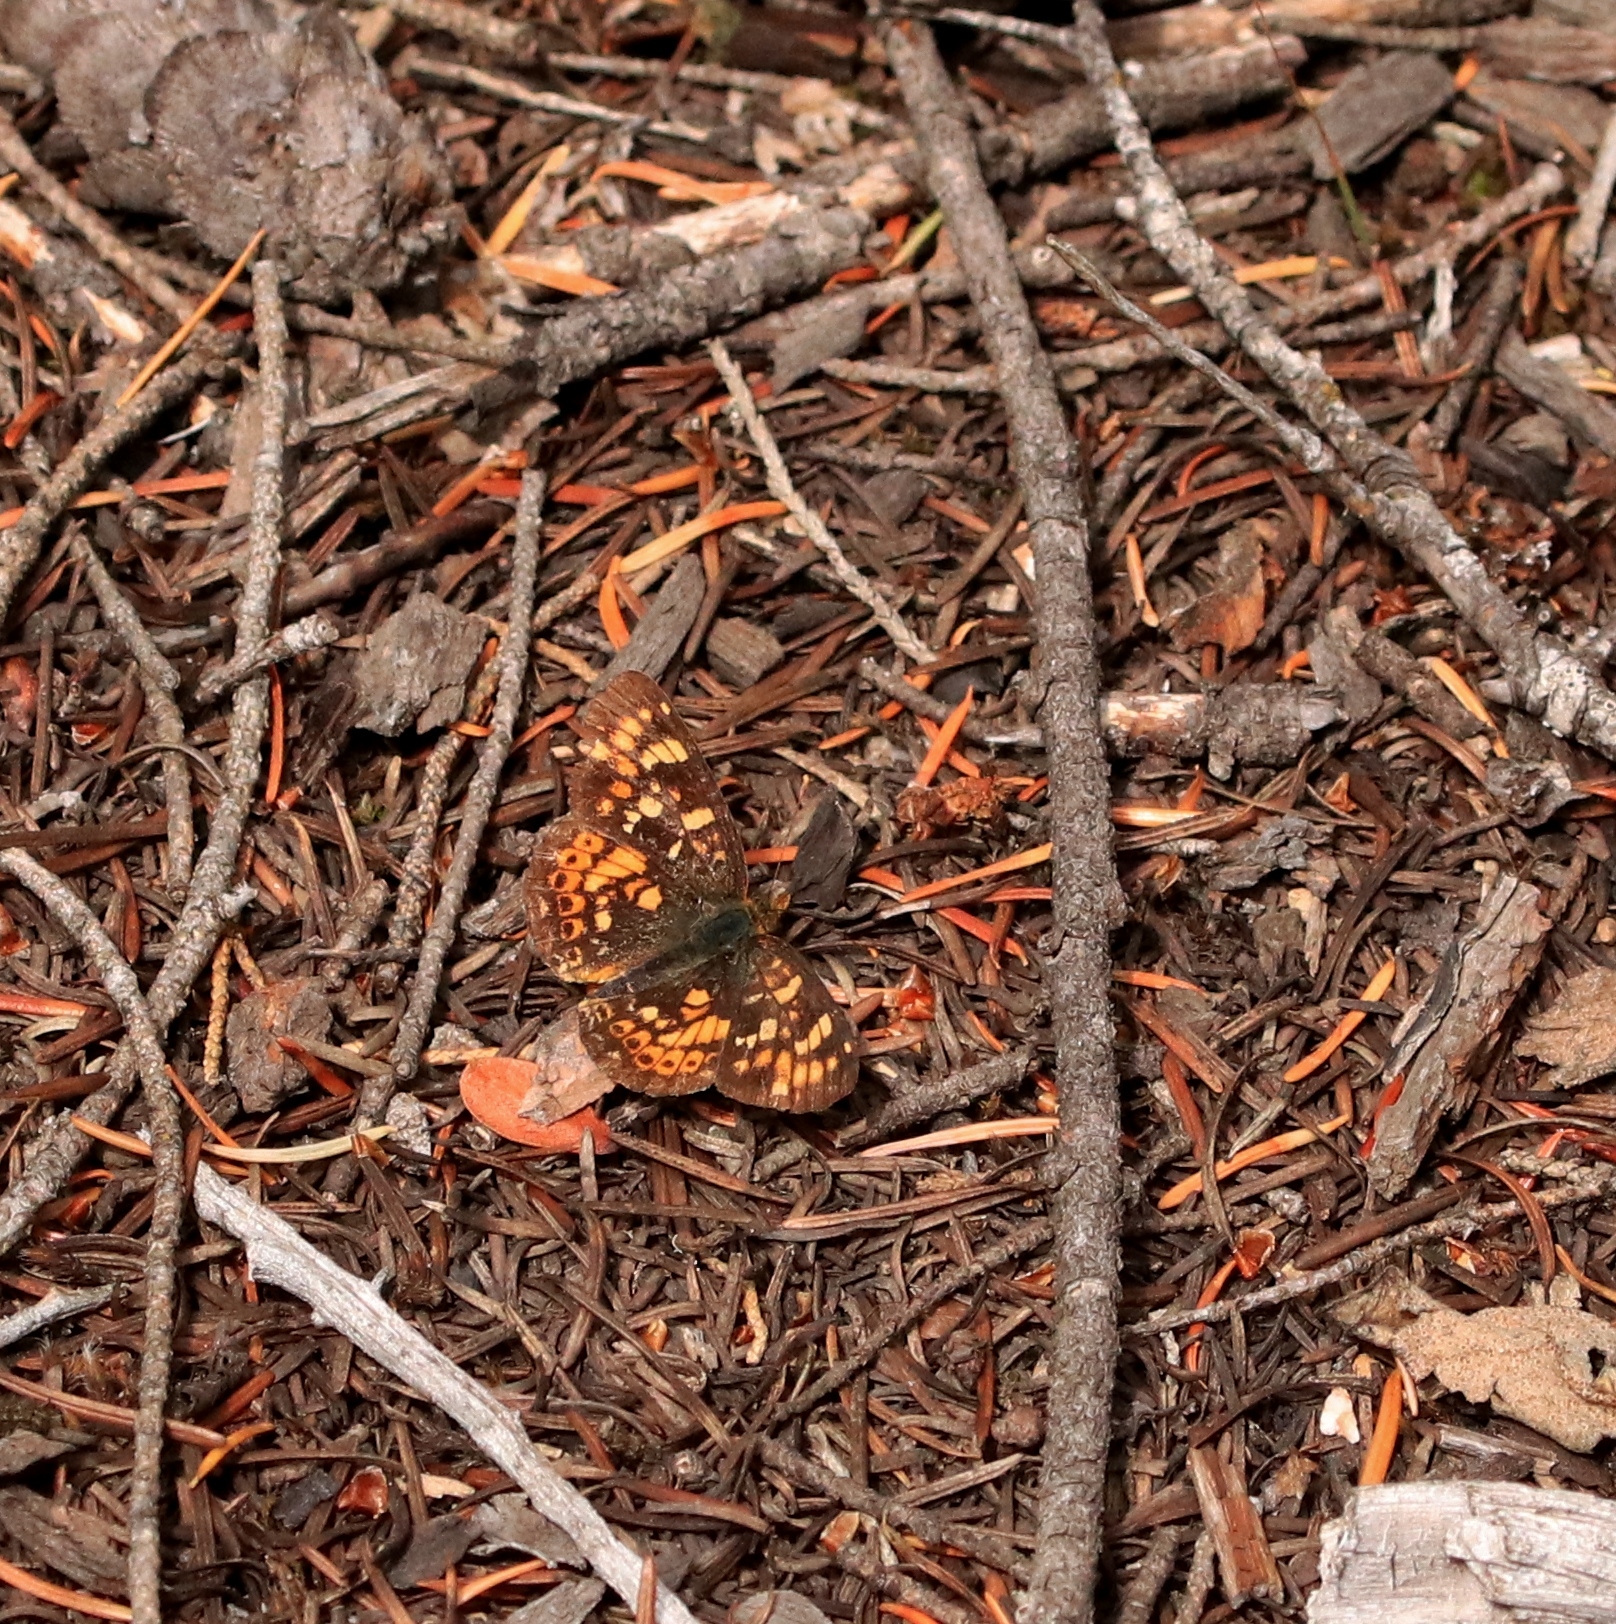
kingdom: Animalia
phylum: Arthropoda
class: Insecta
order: Lepidoptera
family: Nymphalidae
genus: Phyciodes
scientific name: Phyciodes tharos
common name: Pearl crescent
